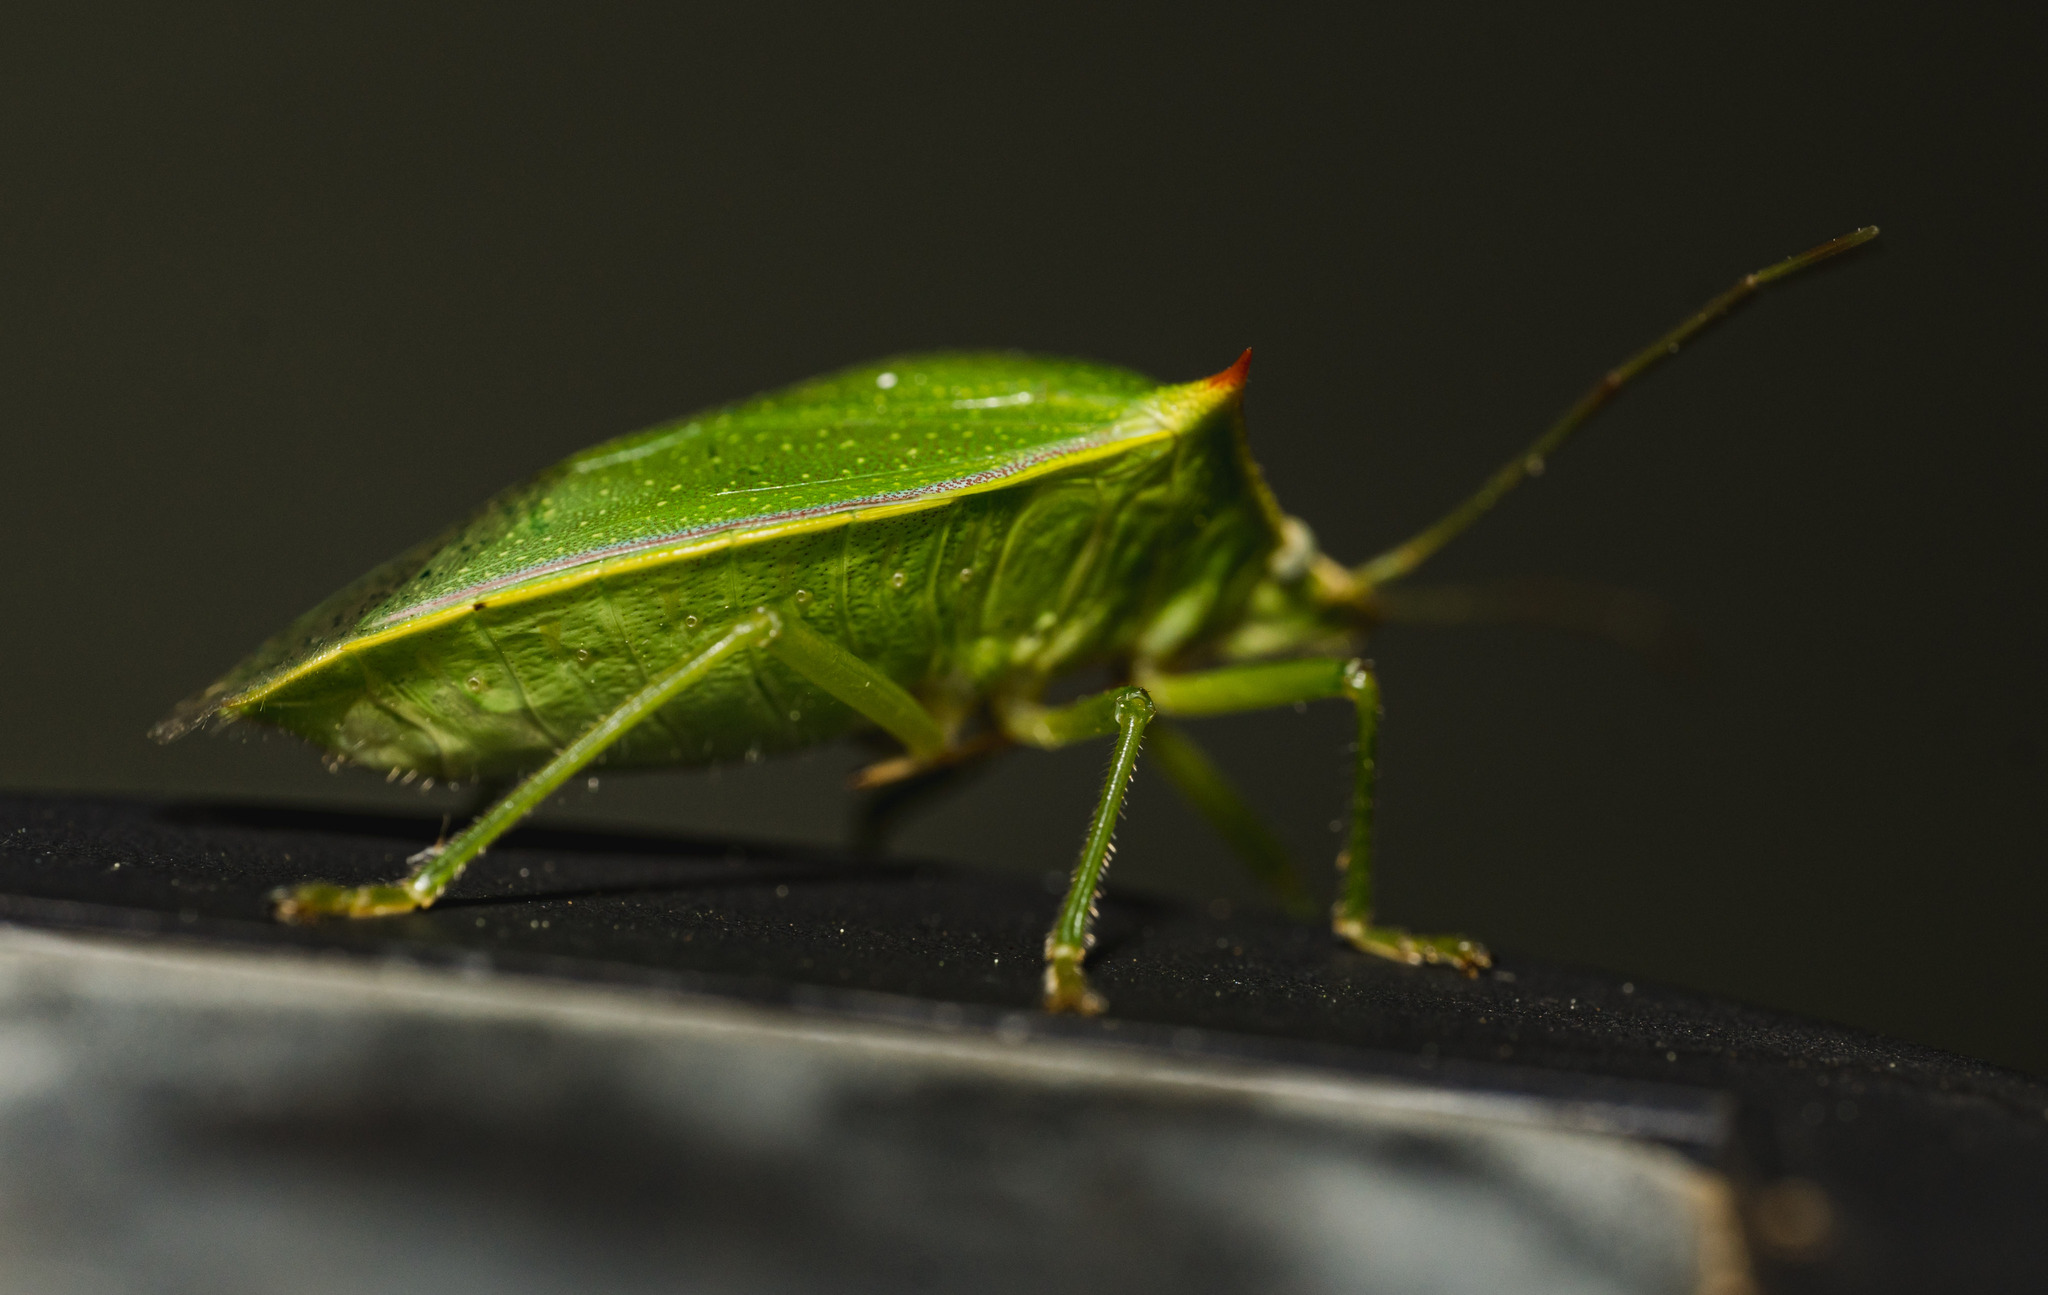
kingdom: Animalia
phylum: Arthropoda
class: Insecta
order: Hemiptera
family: Pentatomidae
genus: Loxa
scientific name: Loxa flavicollis
